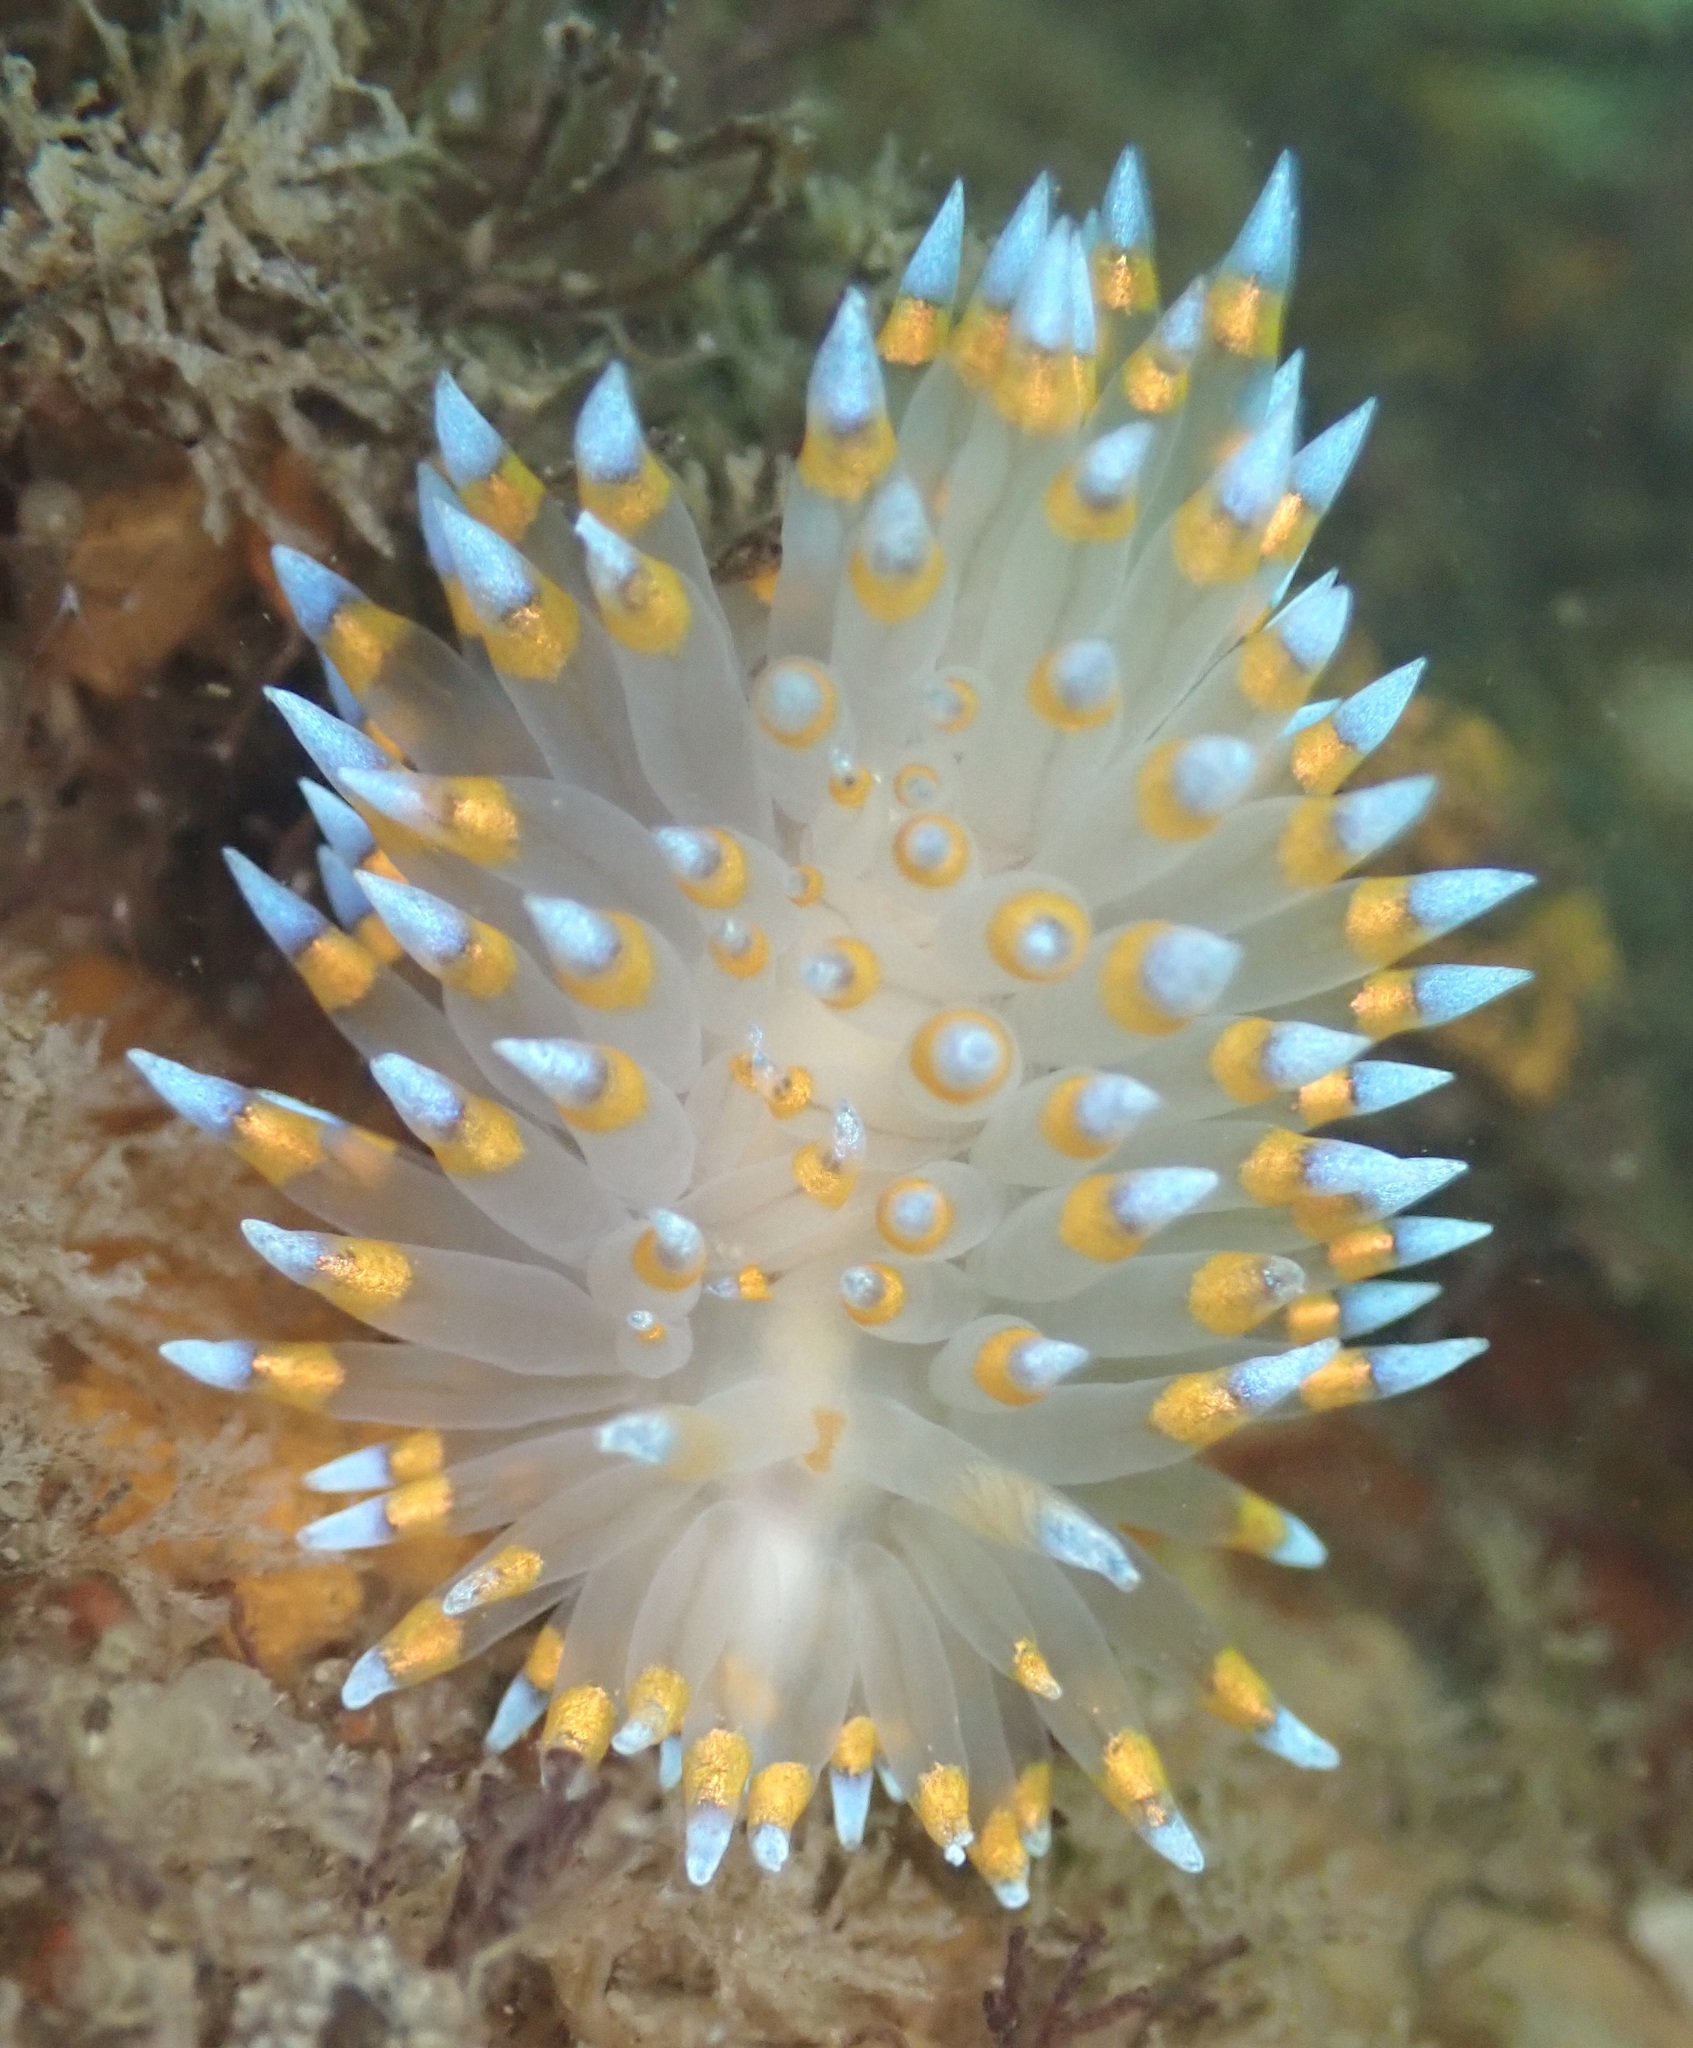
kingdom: Animalia
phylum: Mollusca
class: Gastropoda
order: Nudibranchia
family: Janolidae
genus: Antiopella
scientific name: Antiopella barbarensis
